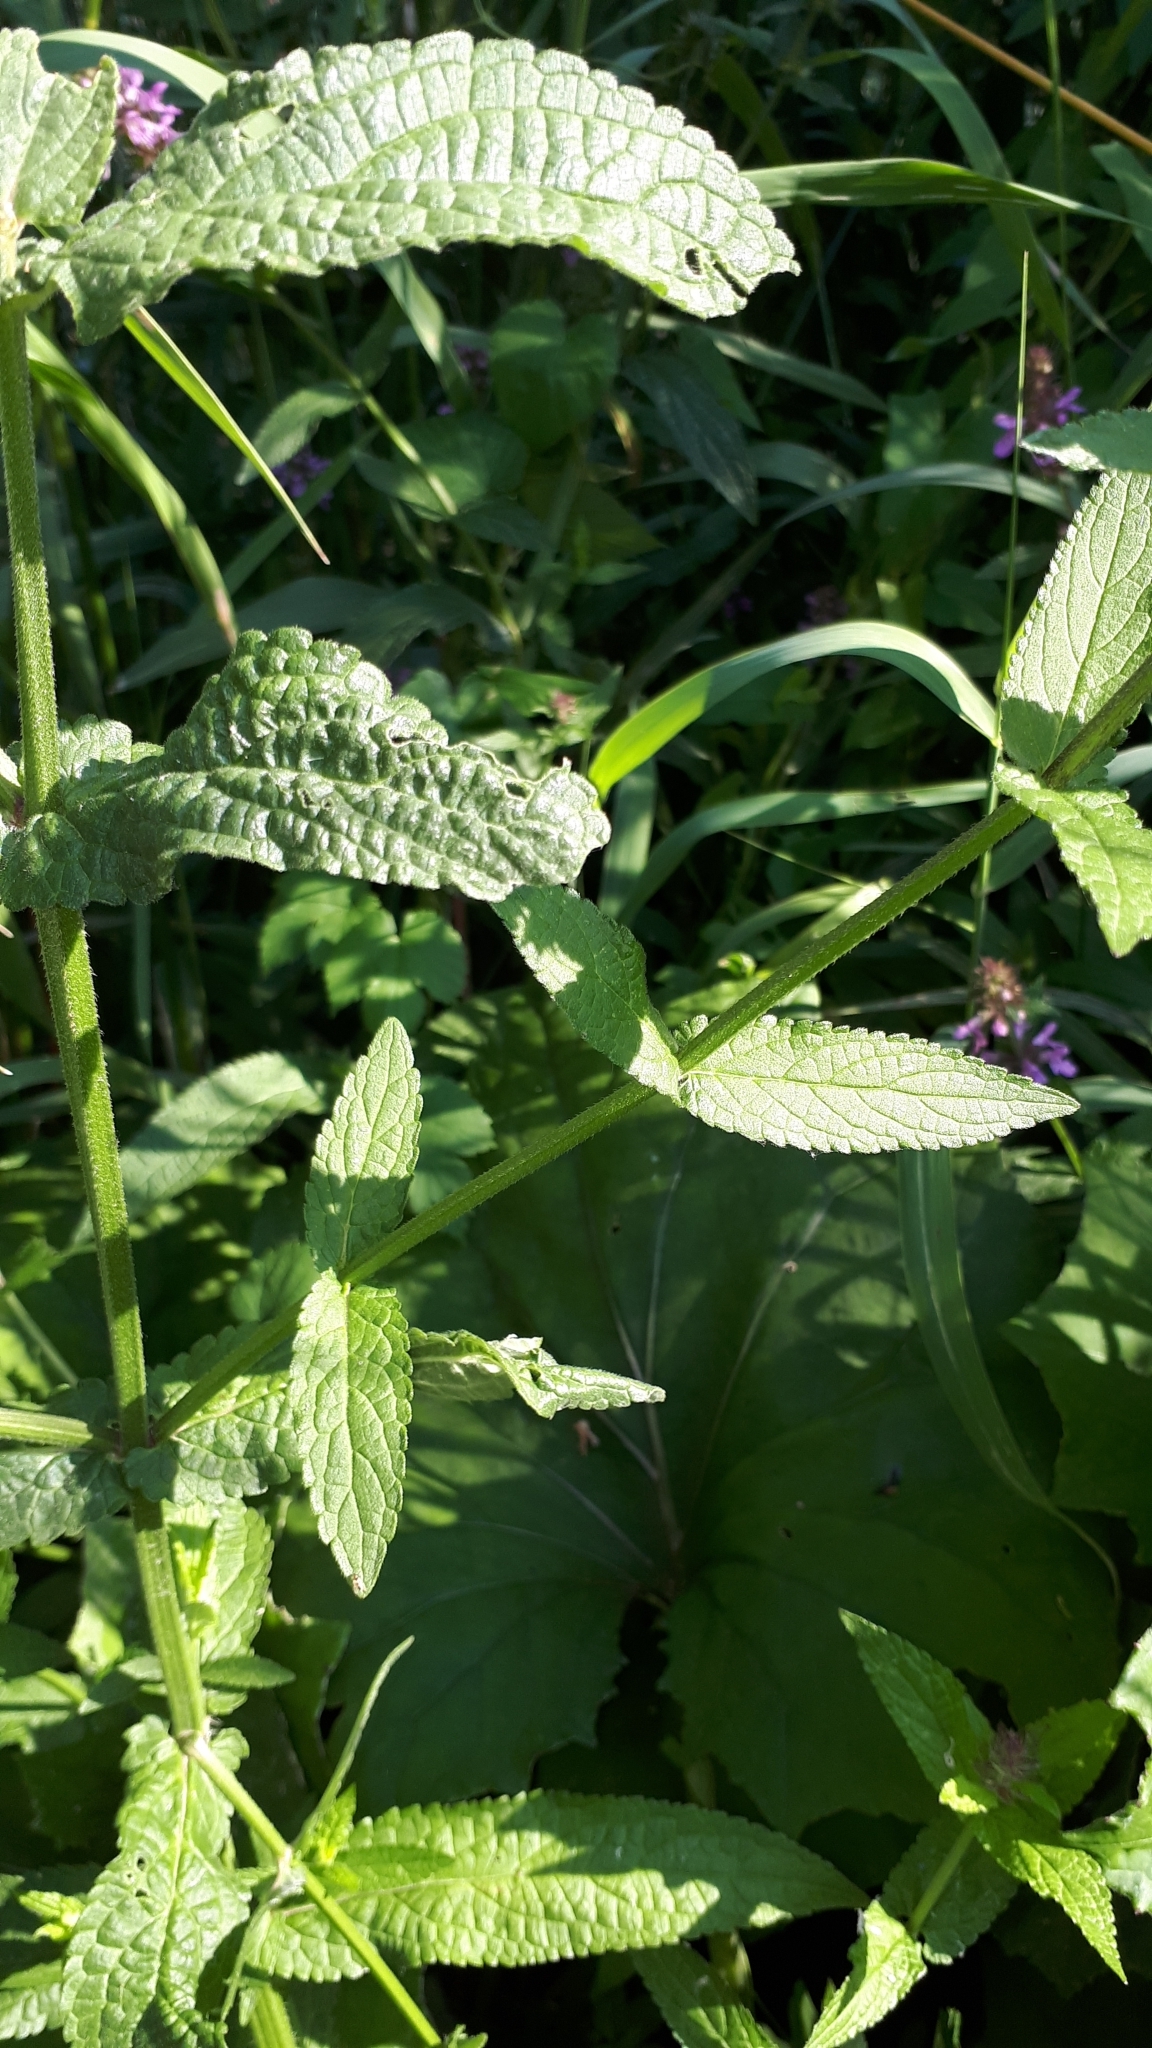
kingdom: Plantae
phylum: Tracheophyta
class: Magnoliopsida
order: Lamiales
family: Lamiaceae
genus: Stachys
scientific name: Stachys palustris
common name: Marsh woundwort
